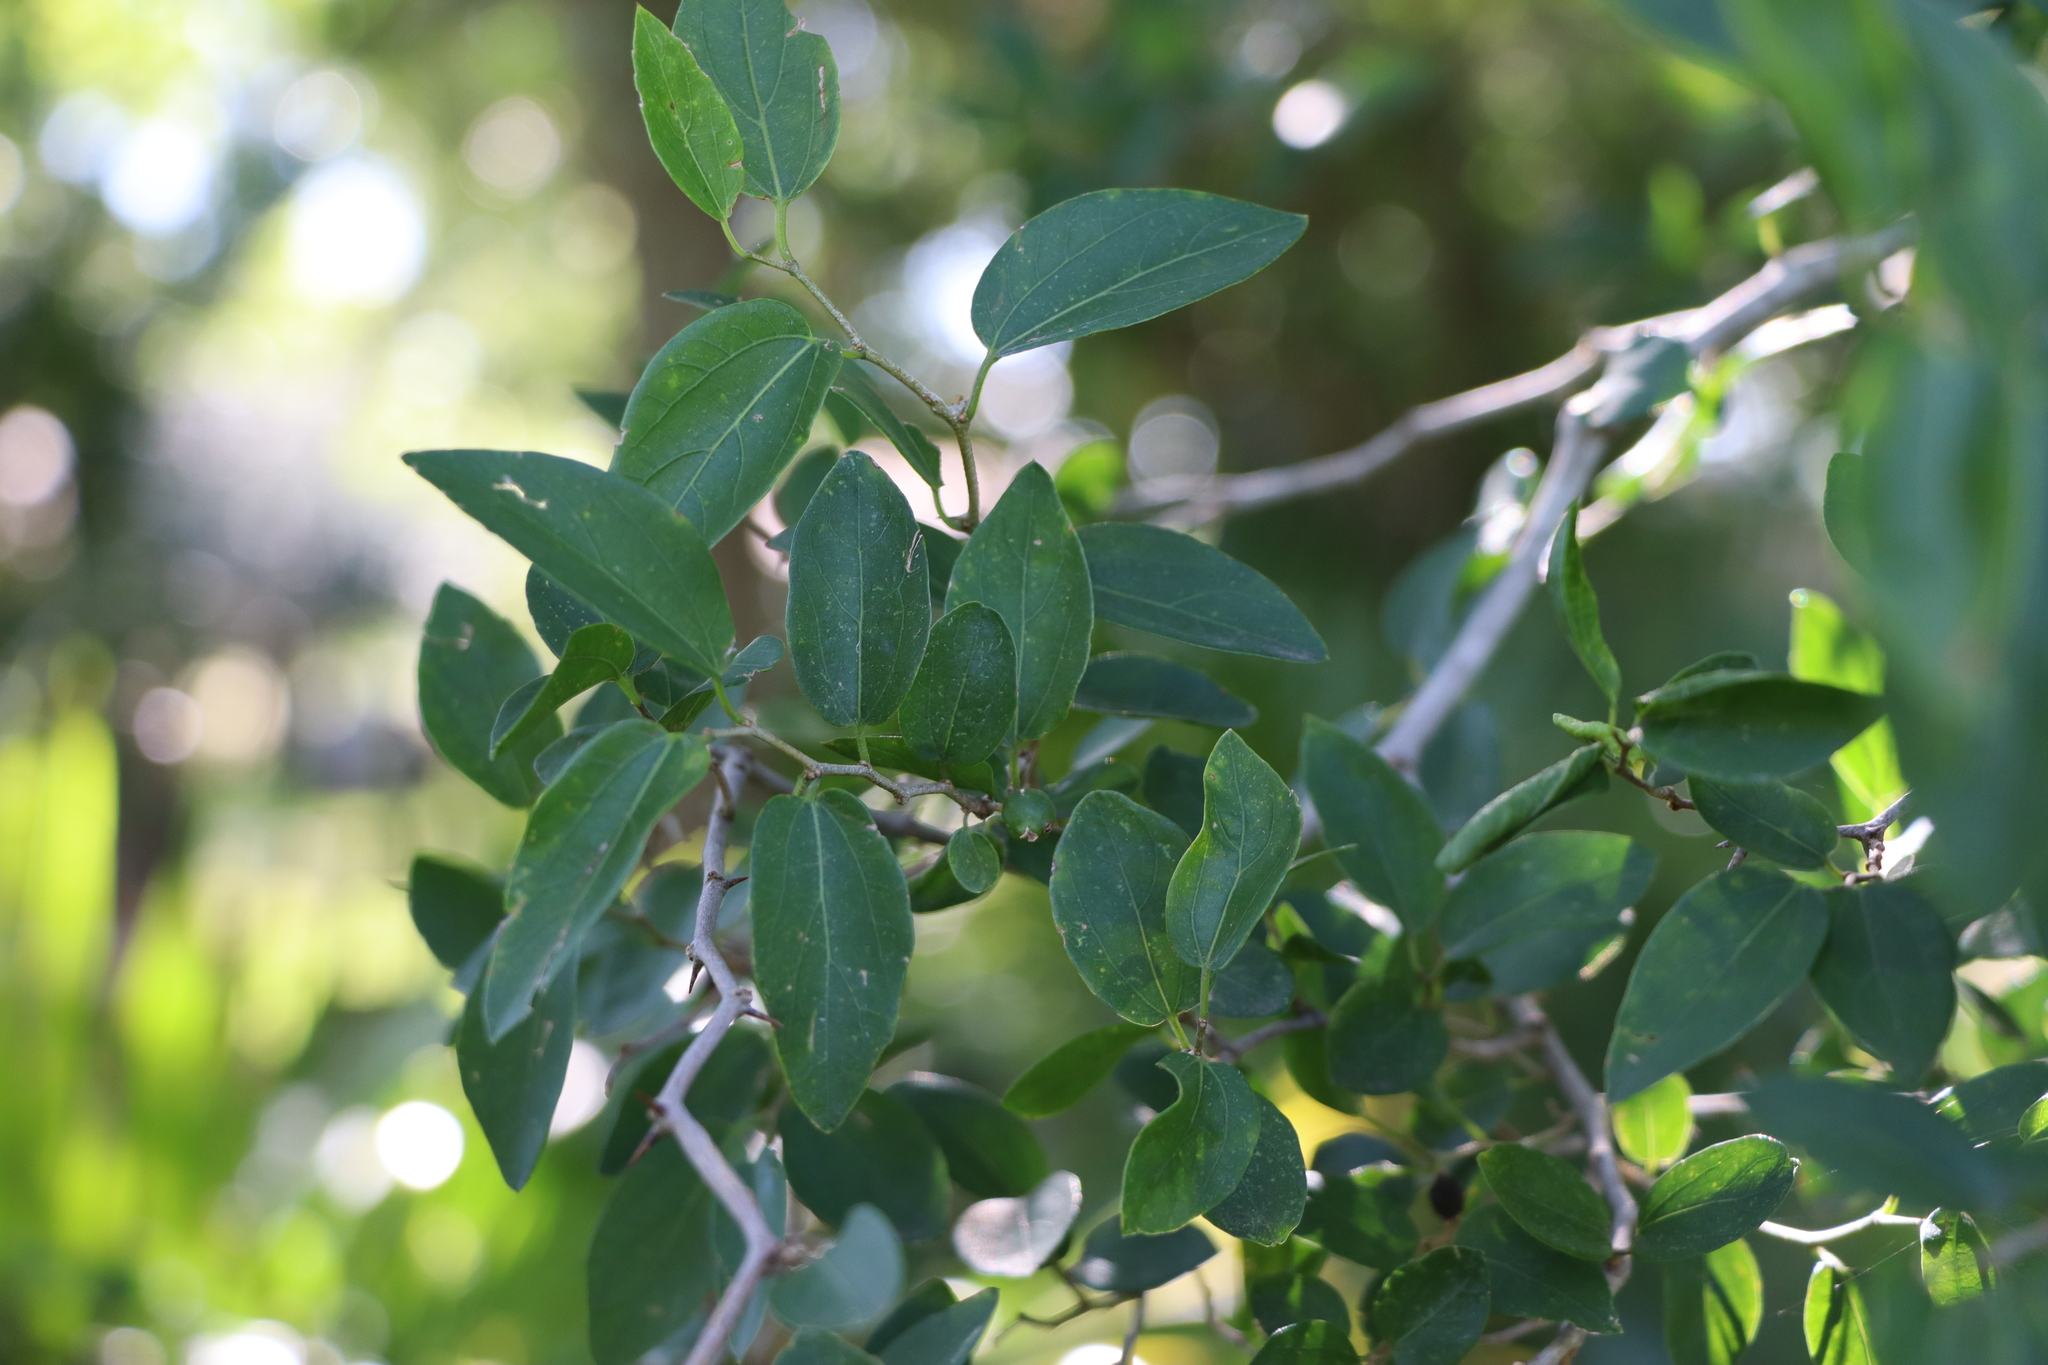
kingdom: Plantae
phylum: Tracheophyta
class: Magnoliopsida
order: Rosales
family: Cannabaceae
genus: Celtis
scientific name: Celtis tala
